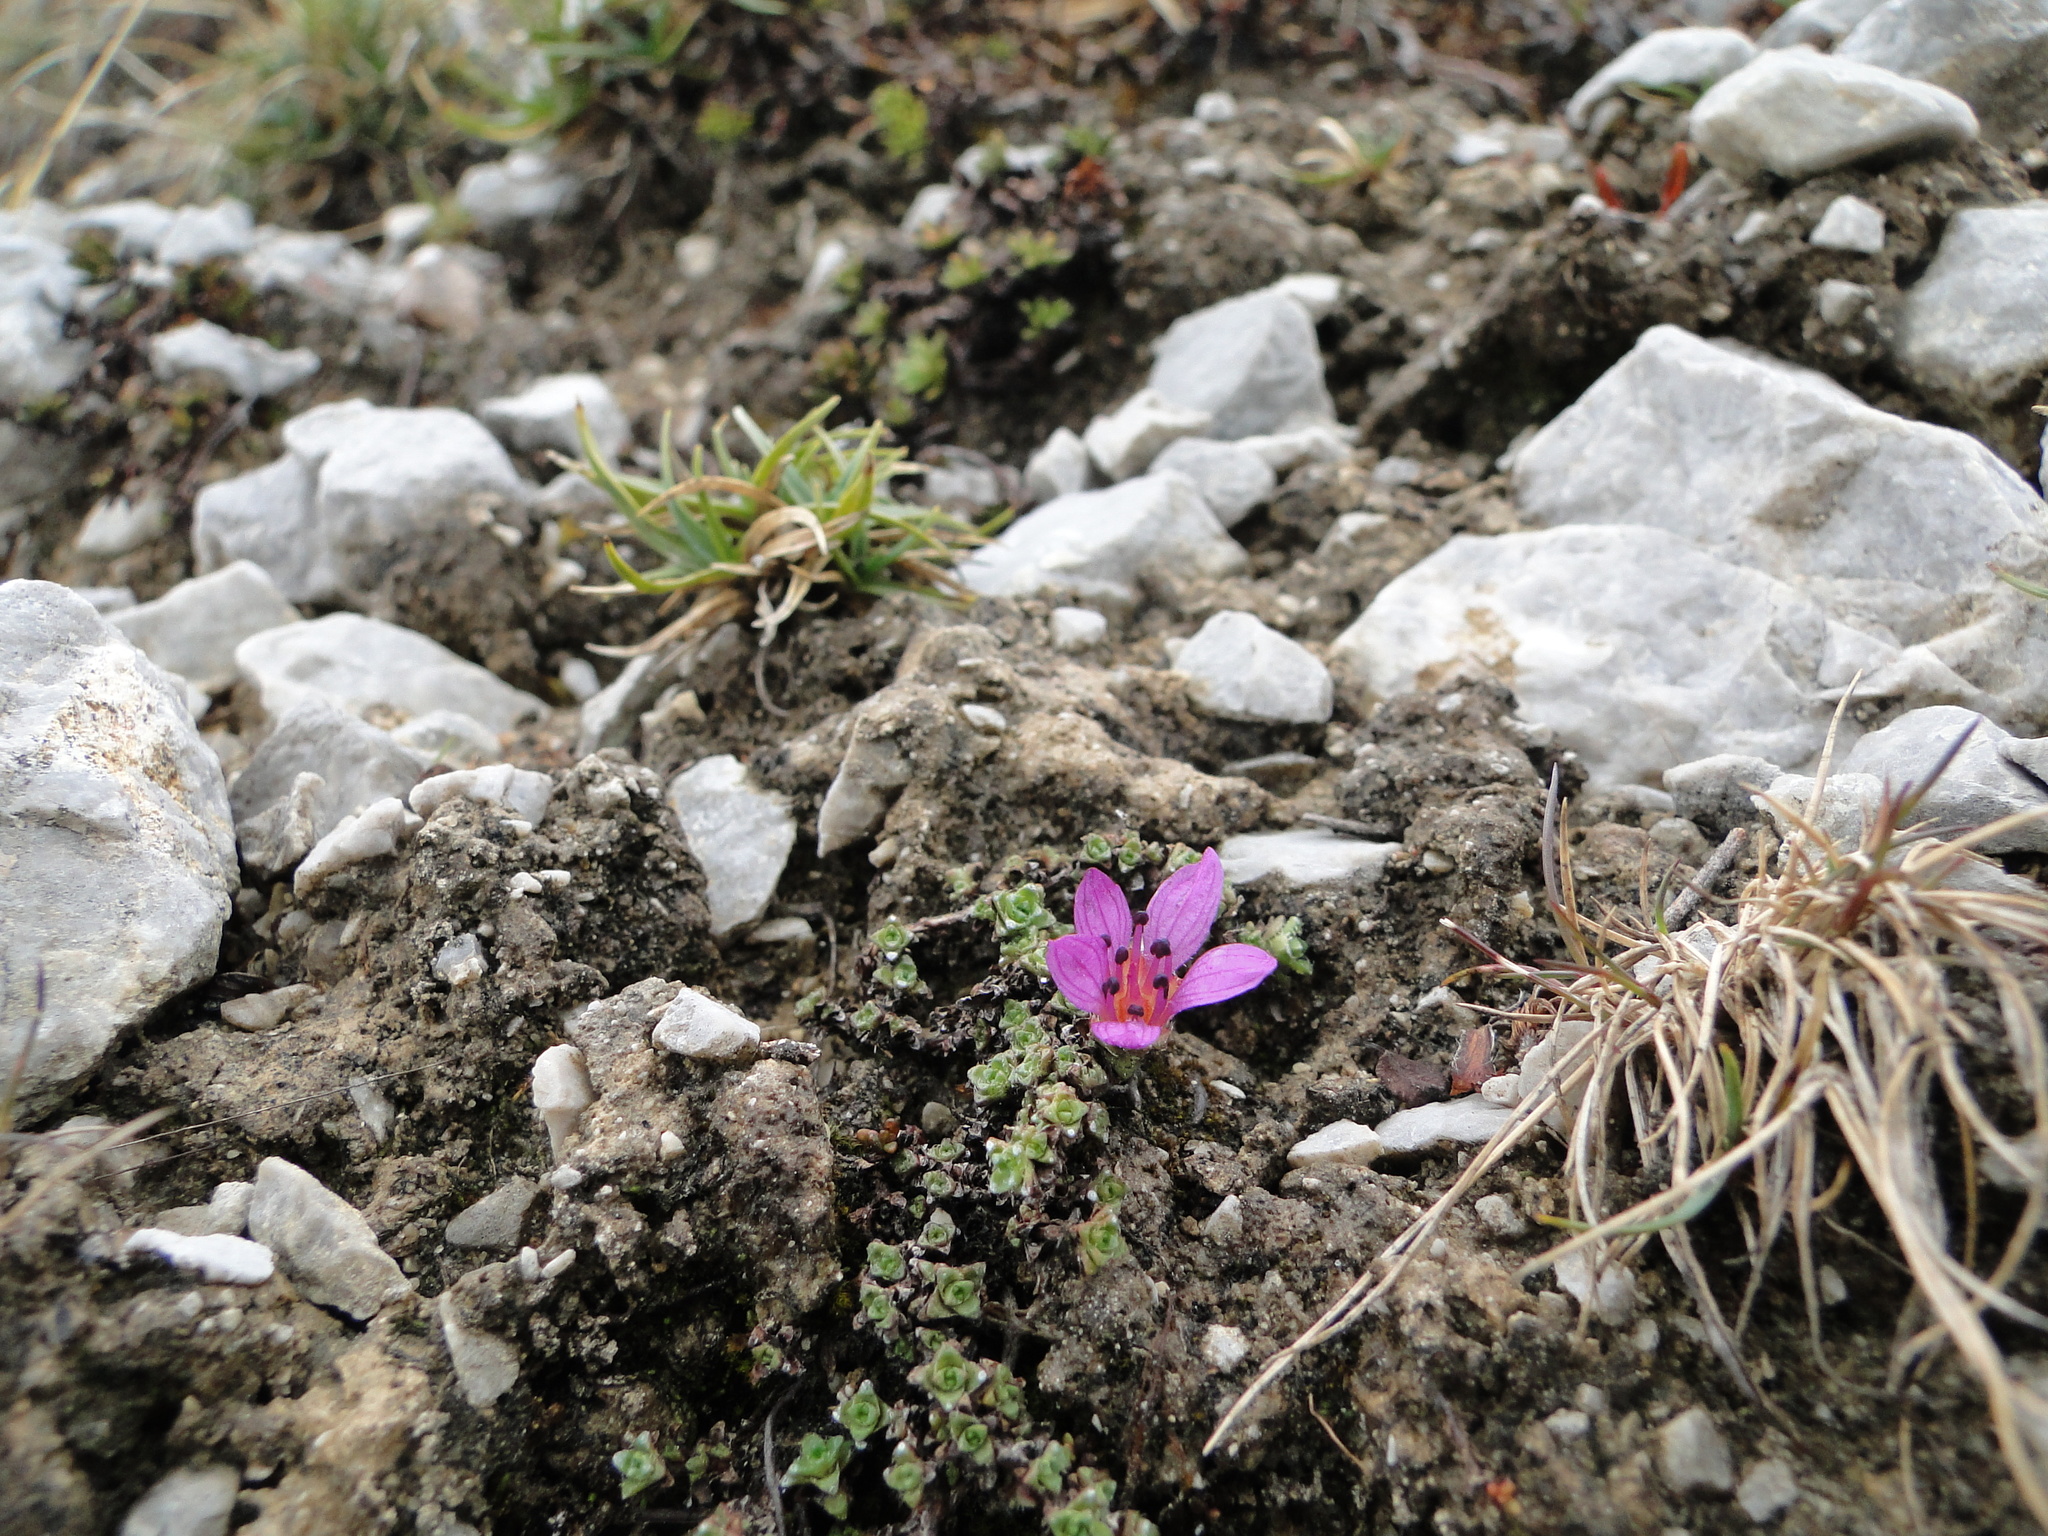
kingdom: Plantae
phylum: Tracheophyta
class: Magnoliopsida
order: Saxifragales
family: Saxifragaceae
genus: Saxifraga
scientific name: Saxifraga oppositifolia
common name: Purple saxifrage
